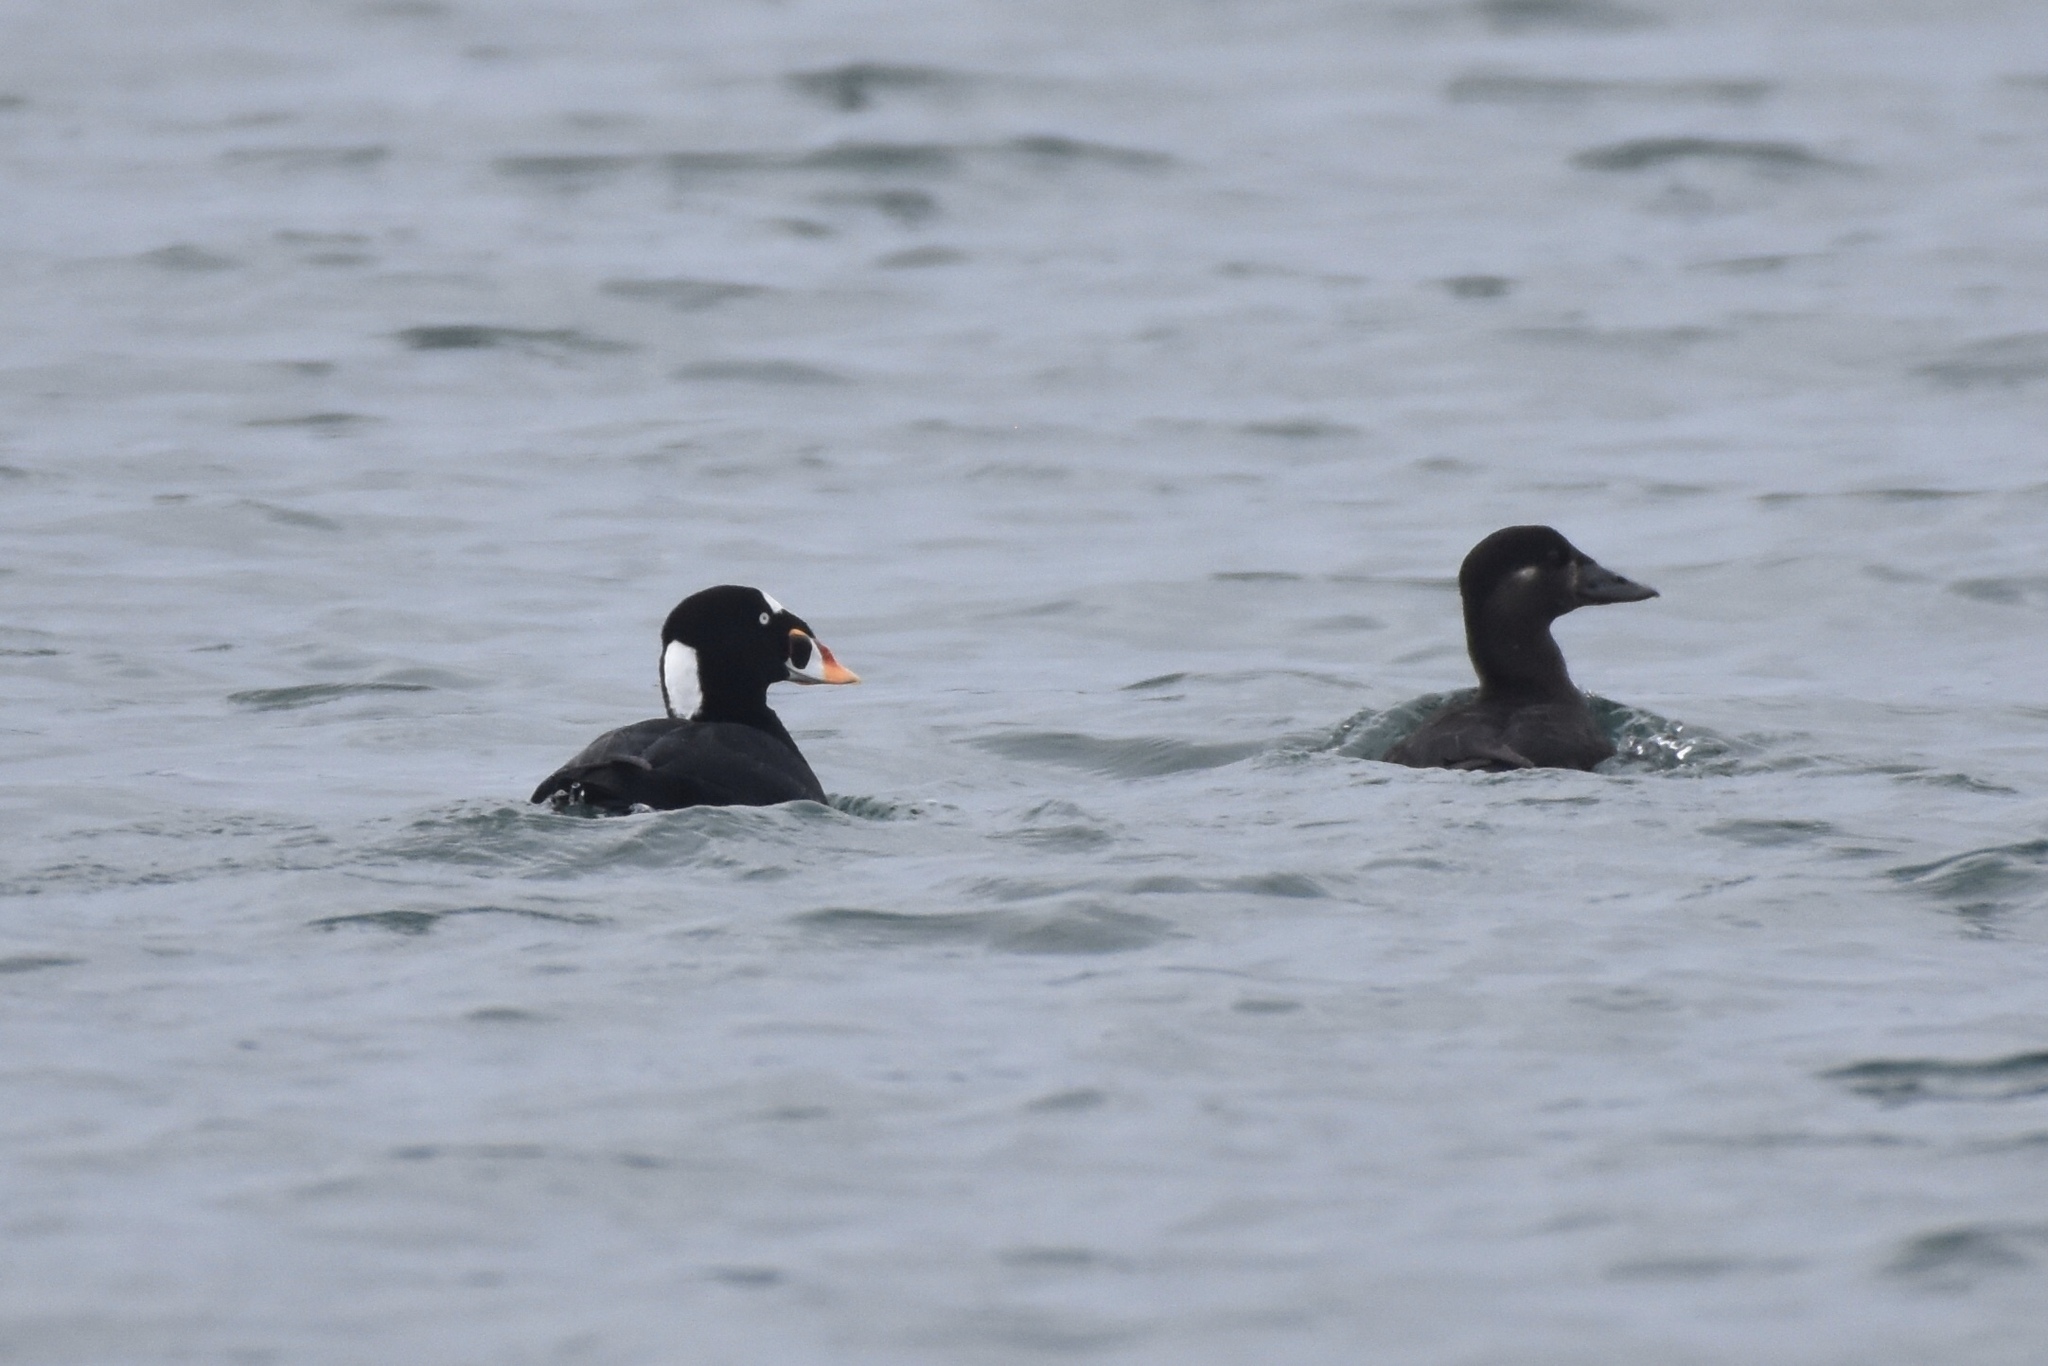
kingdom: Animalia
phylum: Chordata
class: Aves
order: Anseriformes
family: Anatidae
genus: Melanitta
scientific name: Melanitta perspicillata
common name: Surf scoter
